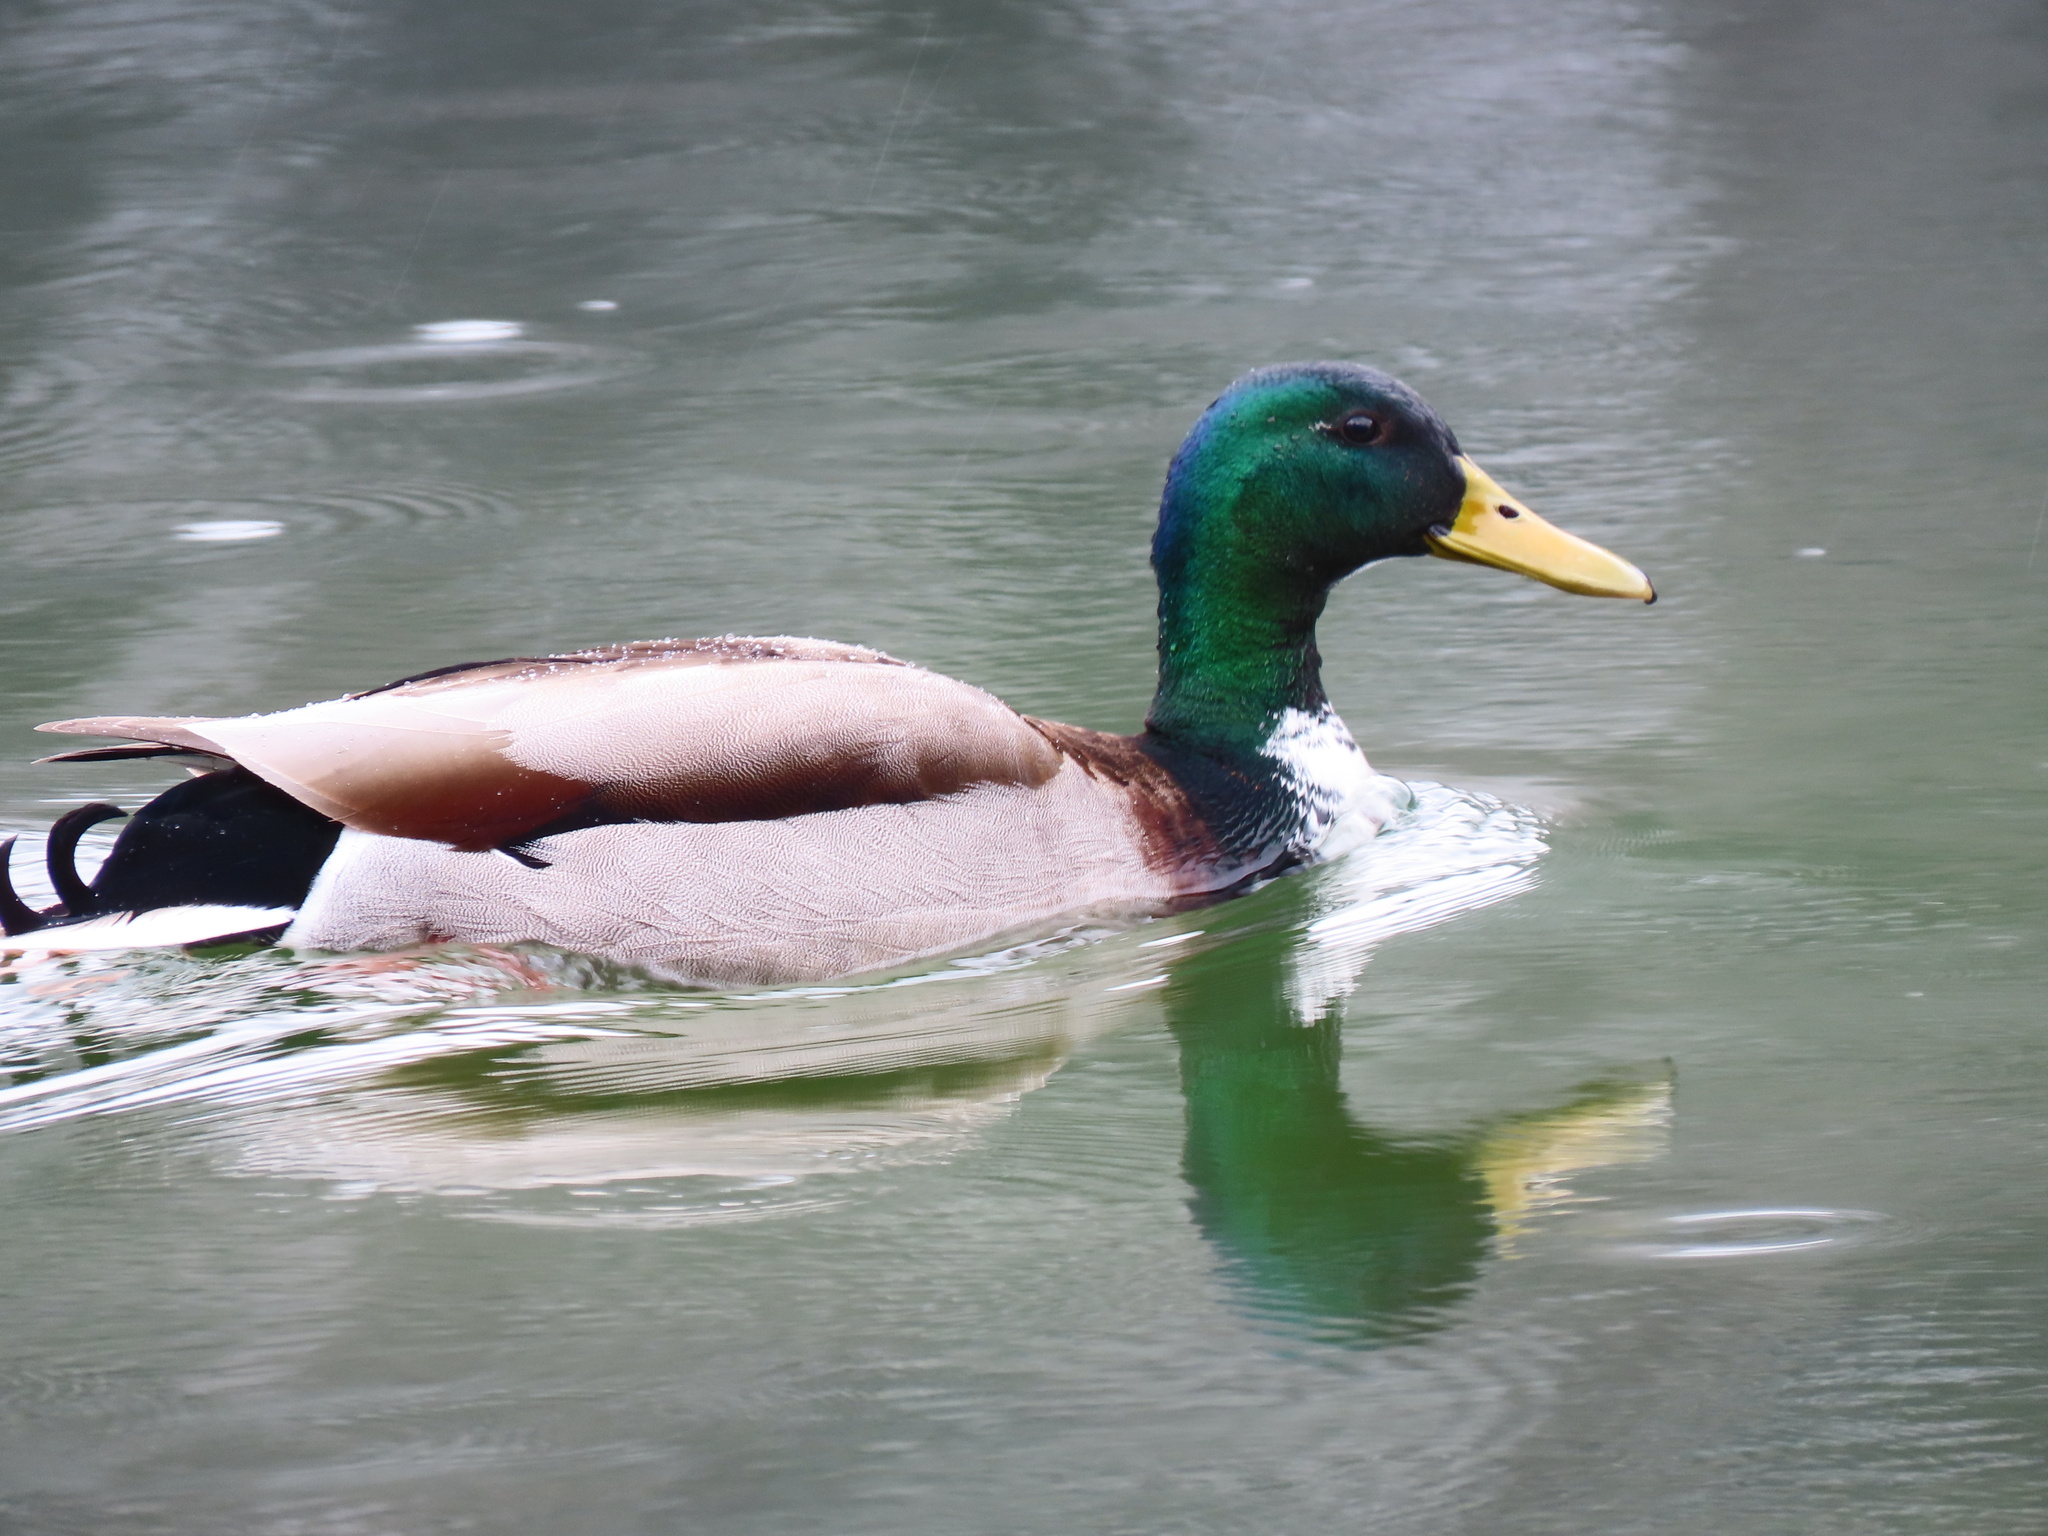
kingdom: Animalia
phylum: Chordata
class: Aves
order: Anseriformes
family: Anatidae
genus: Anas
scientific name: Anas platyrhynchos
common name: Mallard
